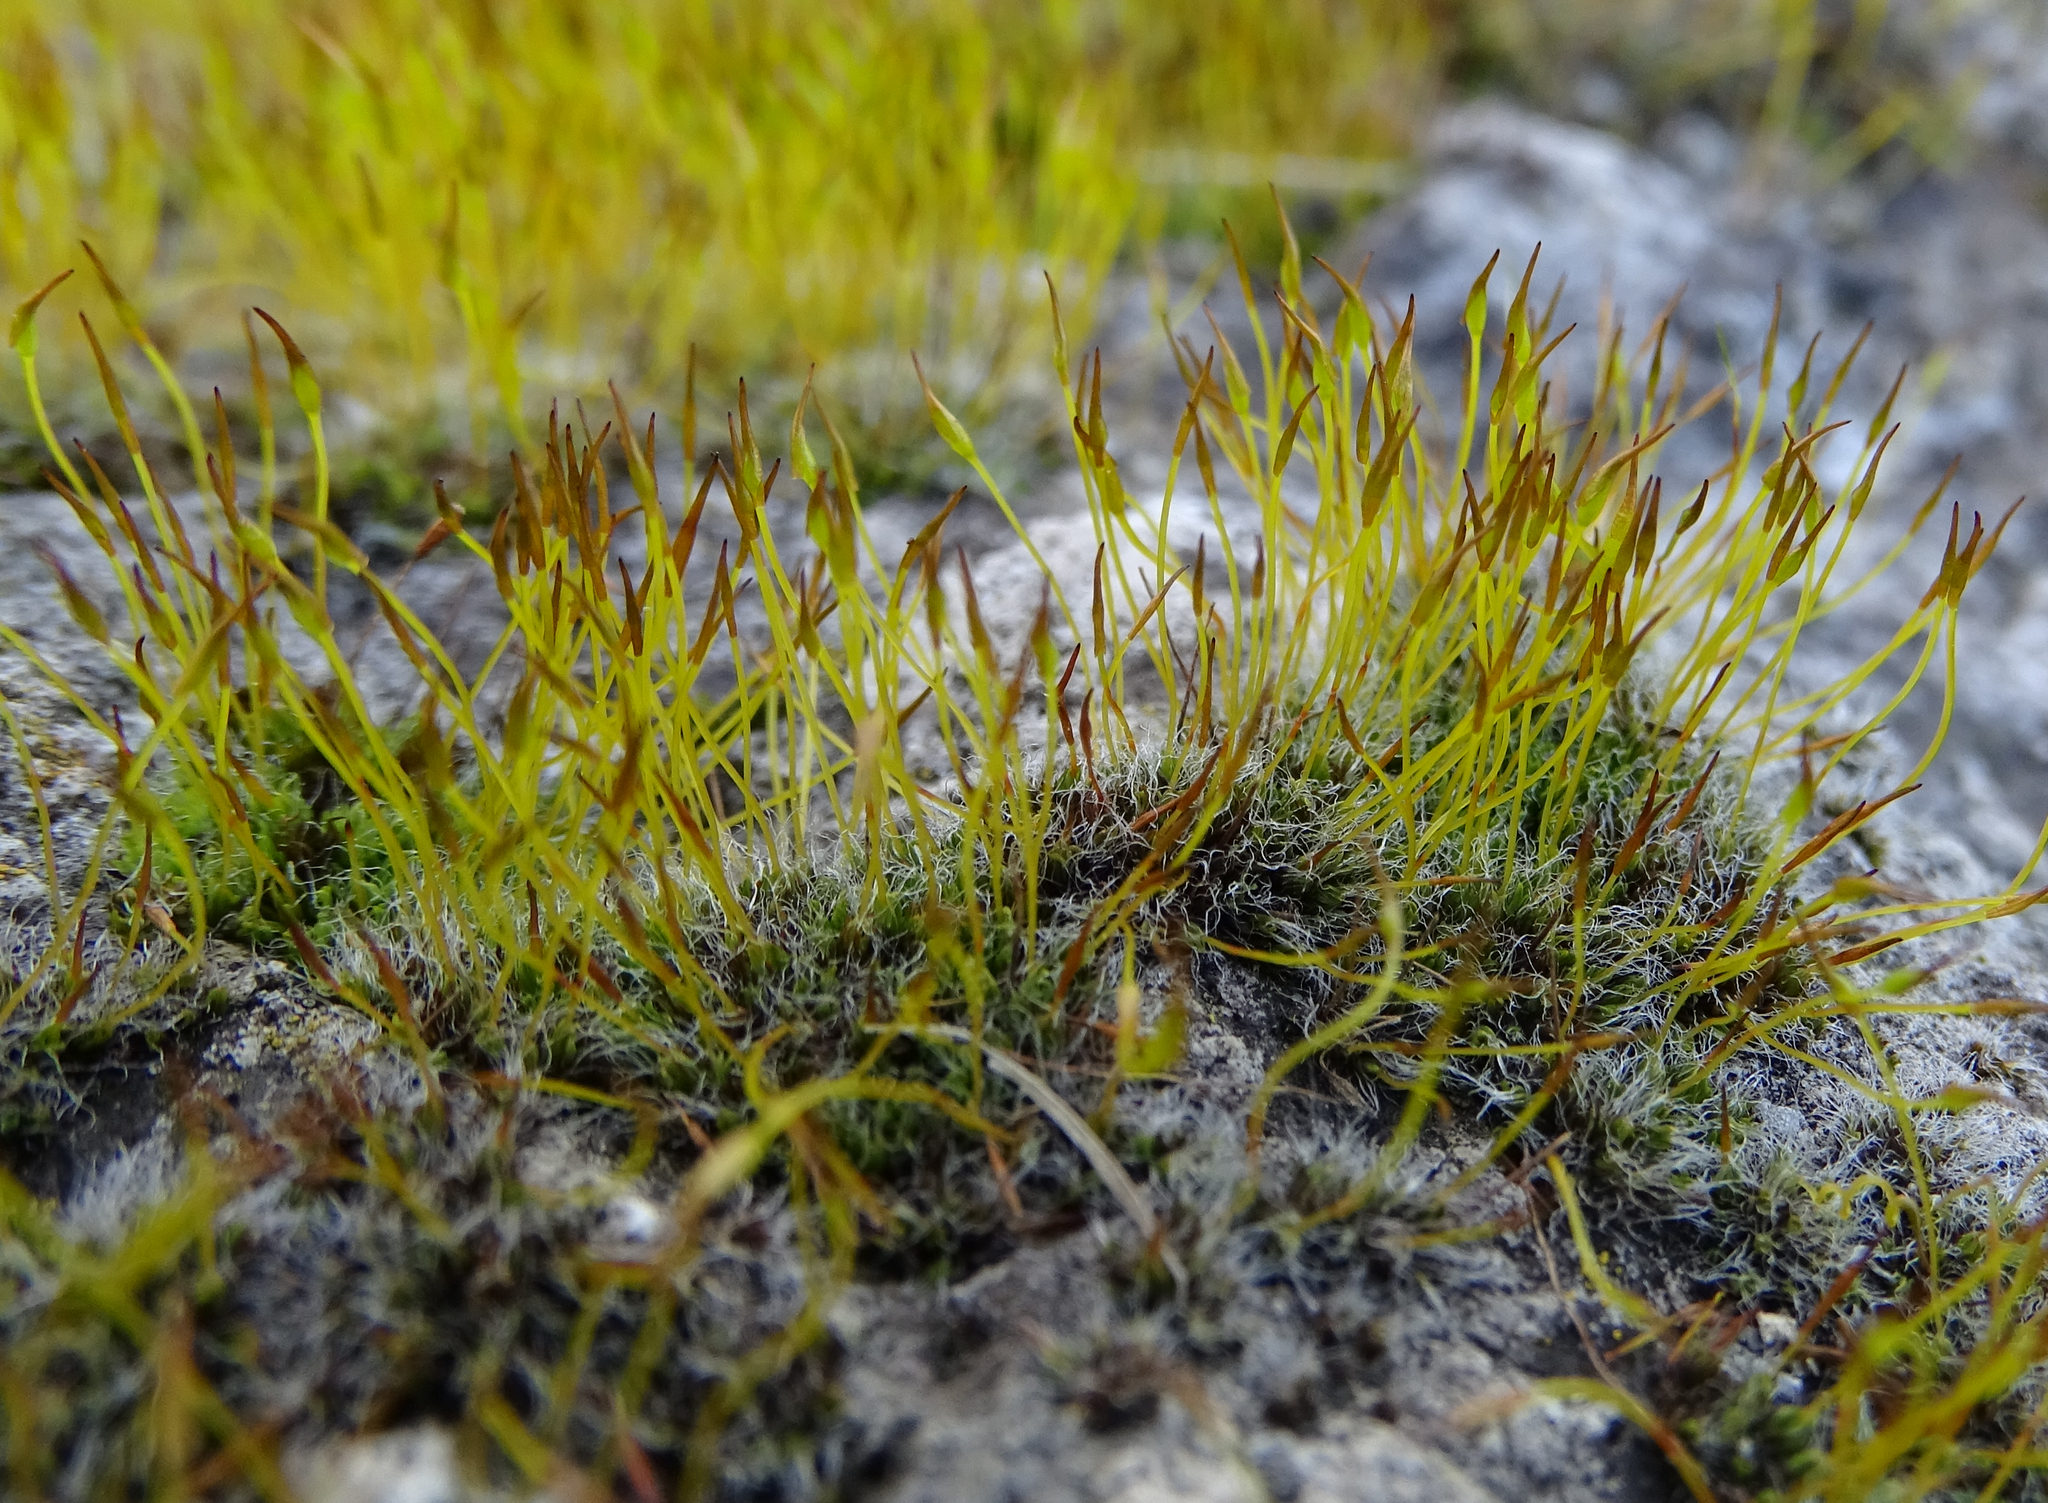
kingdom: Plantae
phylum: Bryophyta
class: Bryopsida
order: Pottiales
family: Pottiaceae
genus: Tortula
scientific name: Tortula muralis
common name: Wall screw-moss
